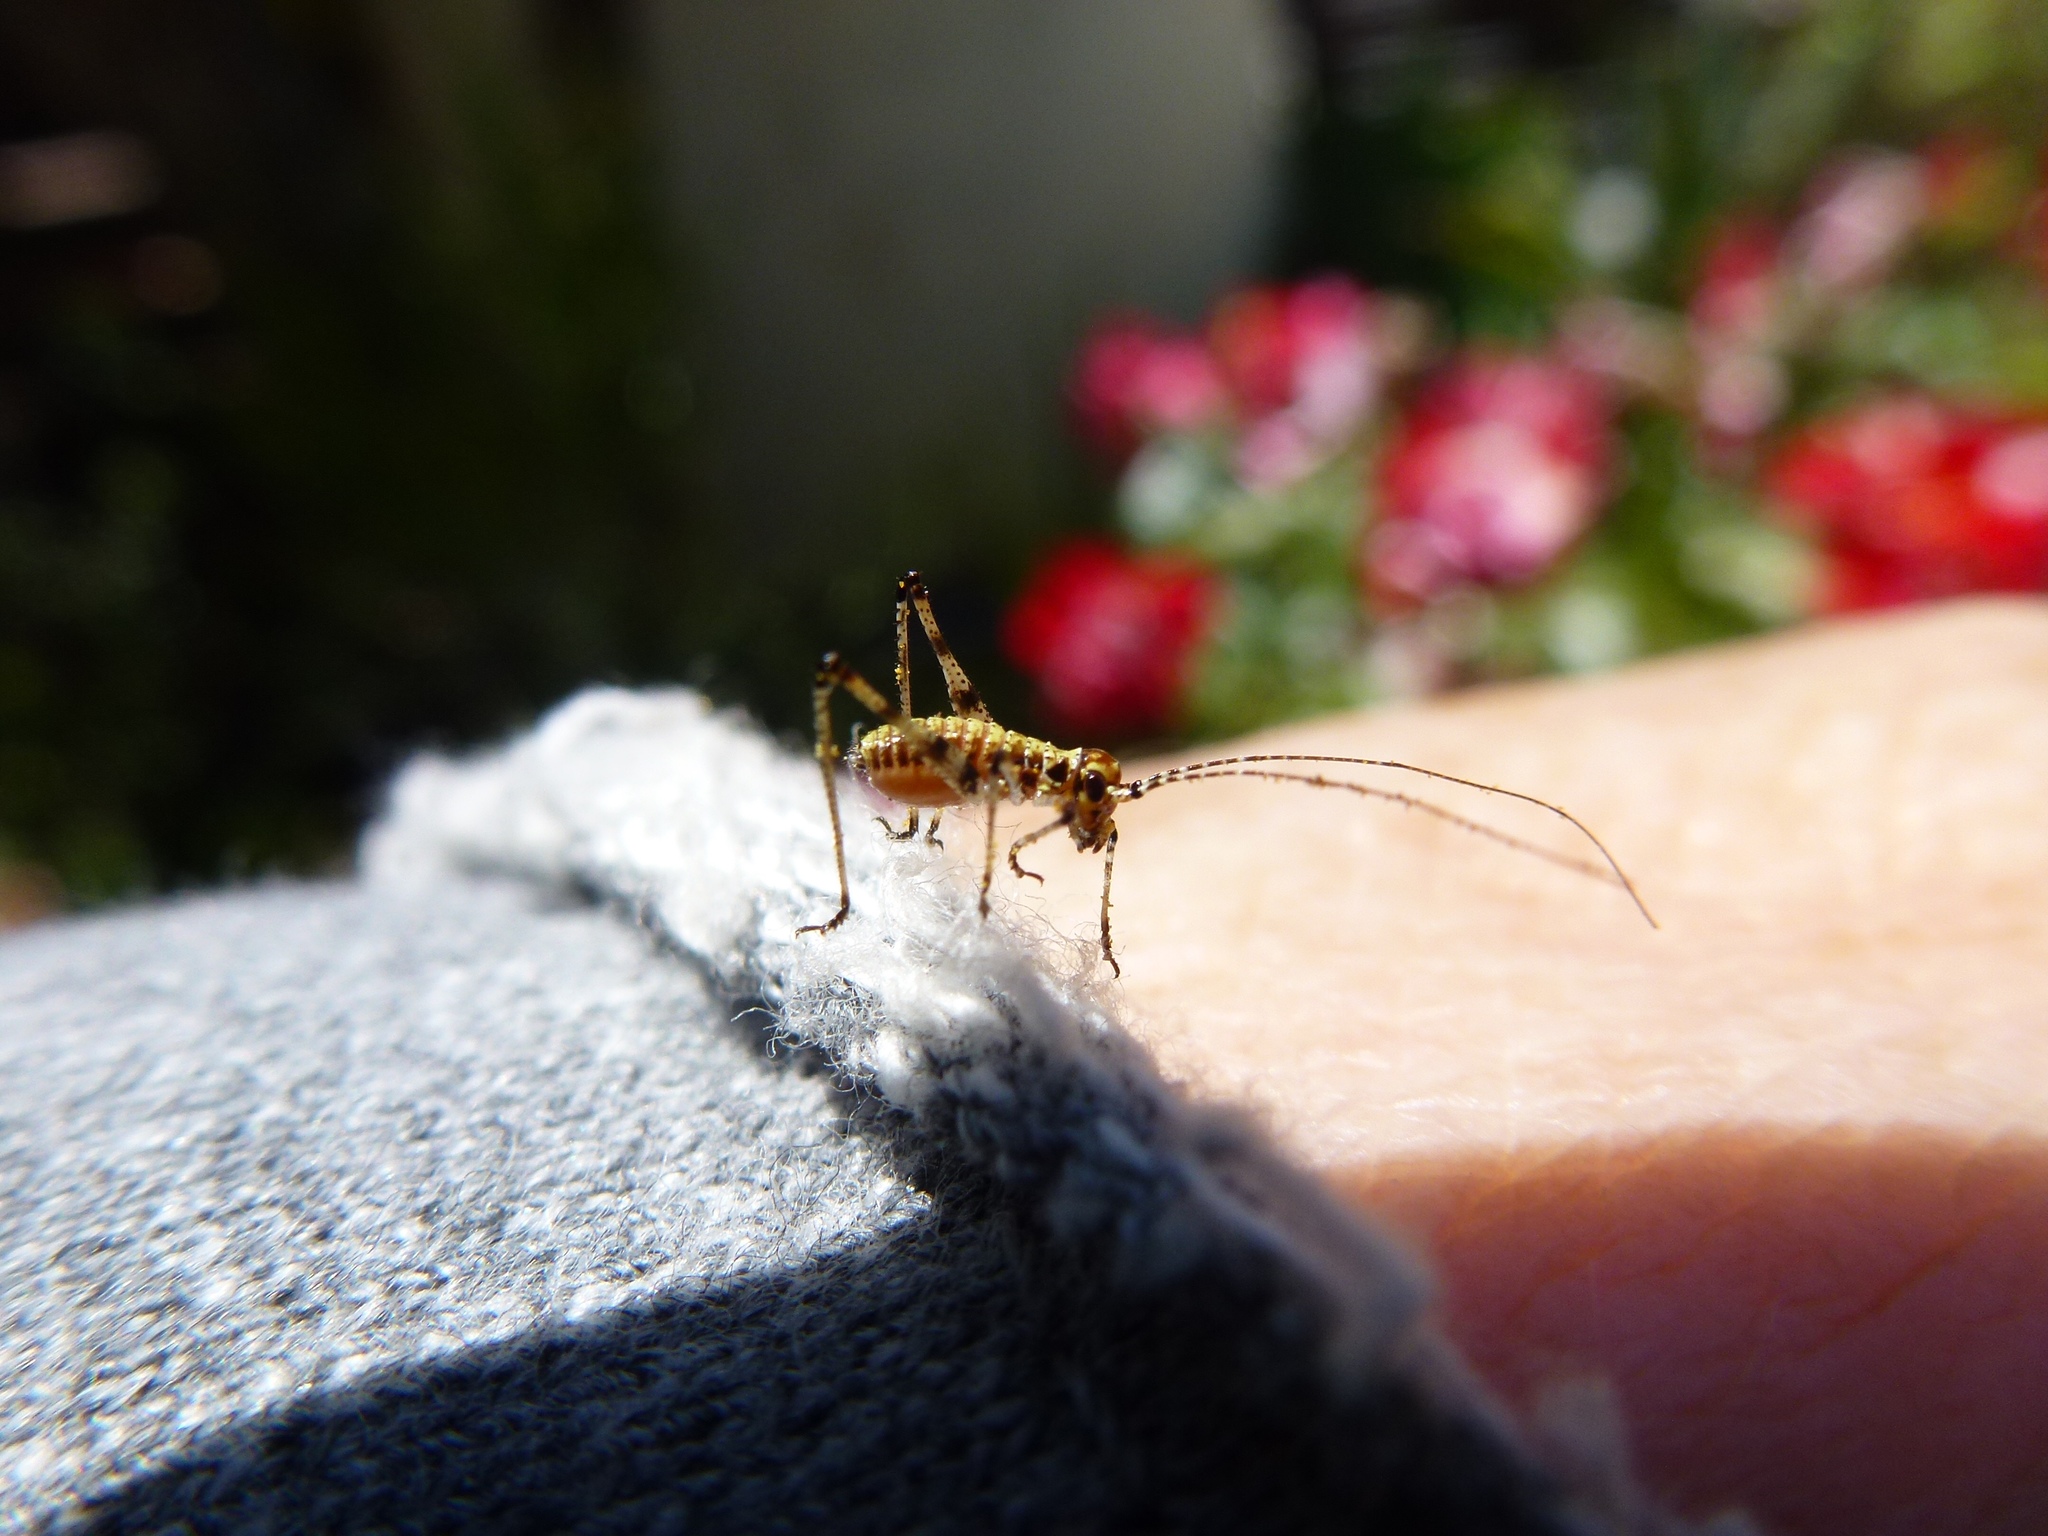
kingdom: Animalia
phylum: Arthropoda
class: Insecta
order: Orthoptera
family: Tettigoniidae
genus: Phaneroptera
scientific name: Phaneroptera nana
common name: Southern sickle bush-cricket
